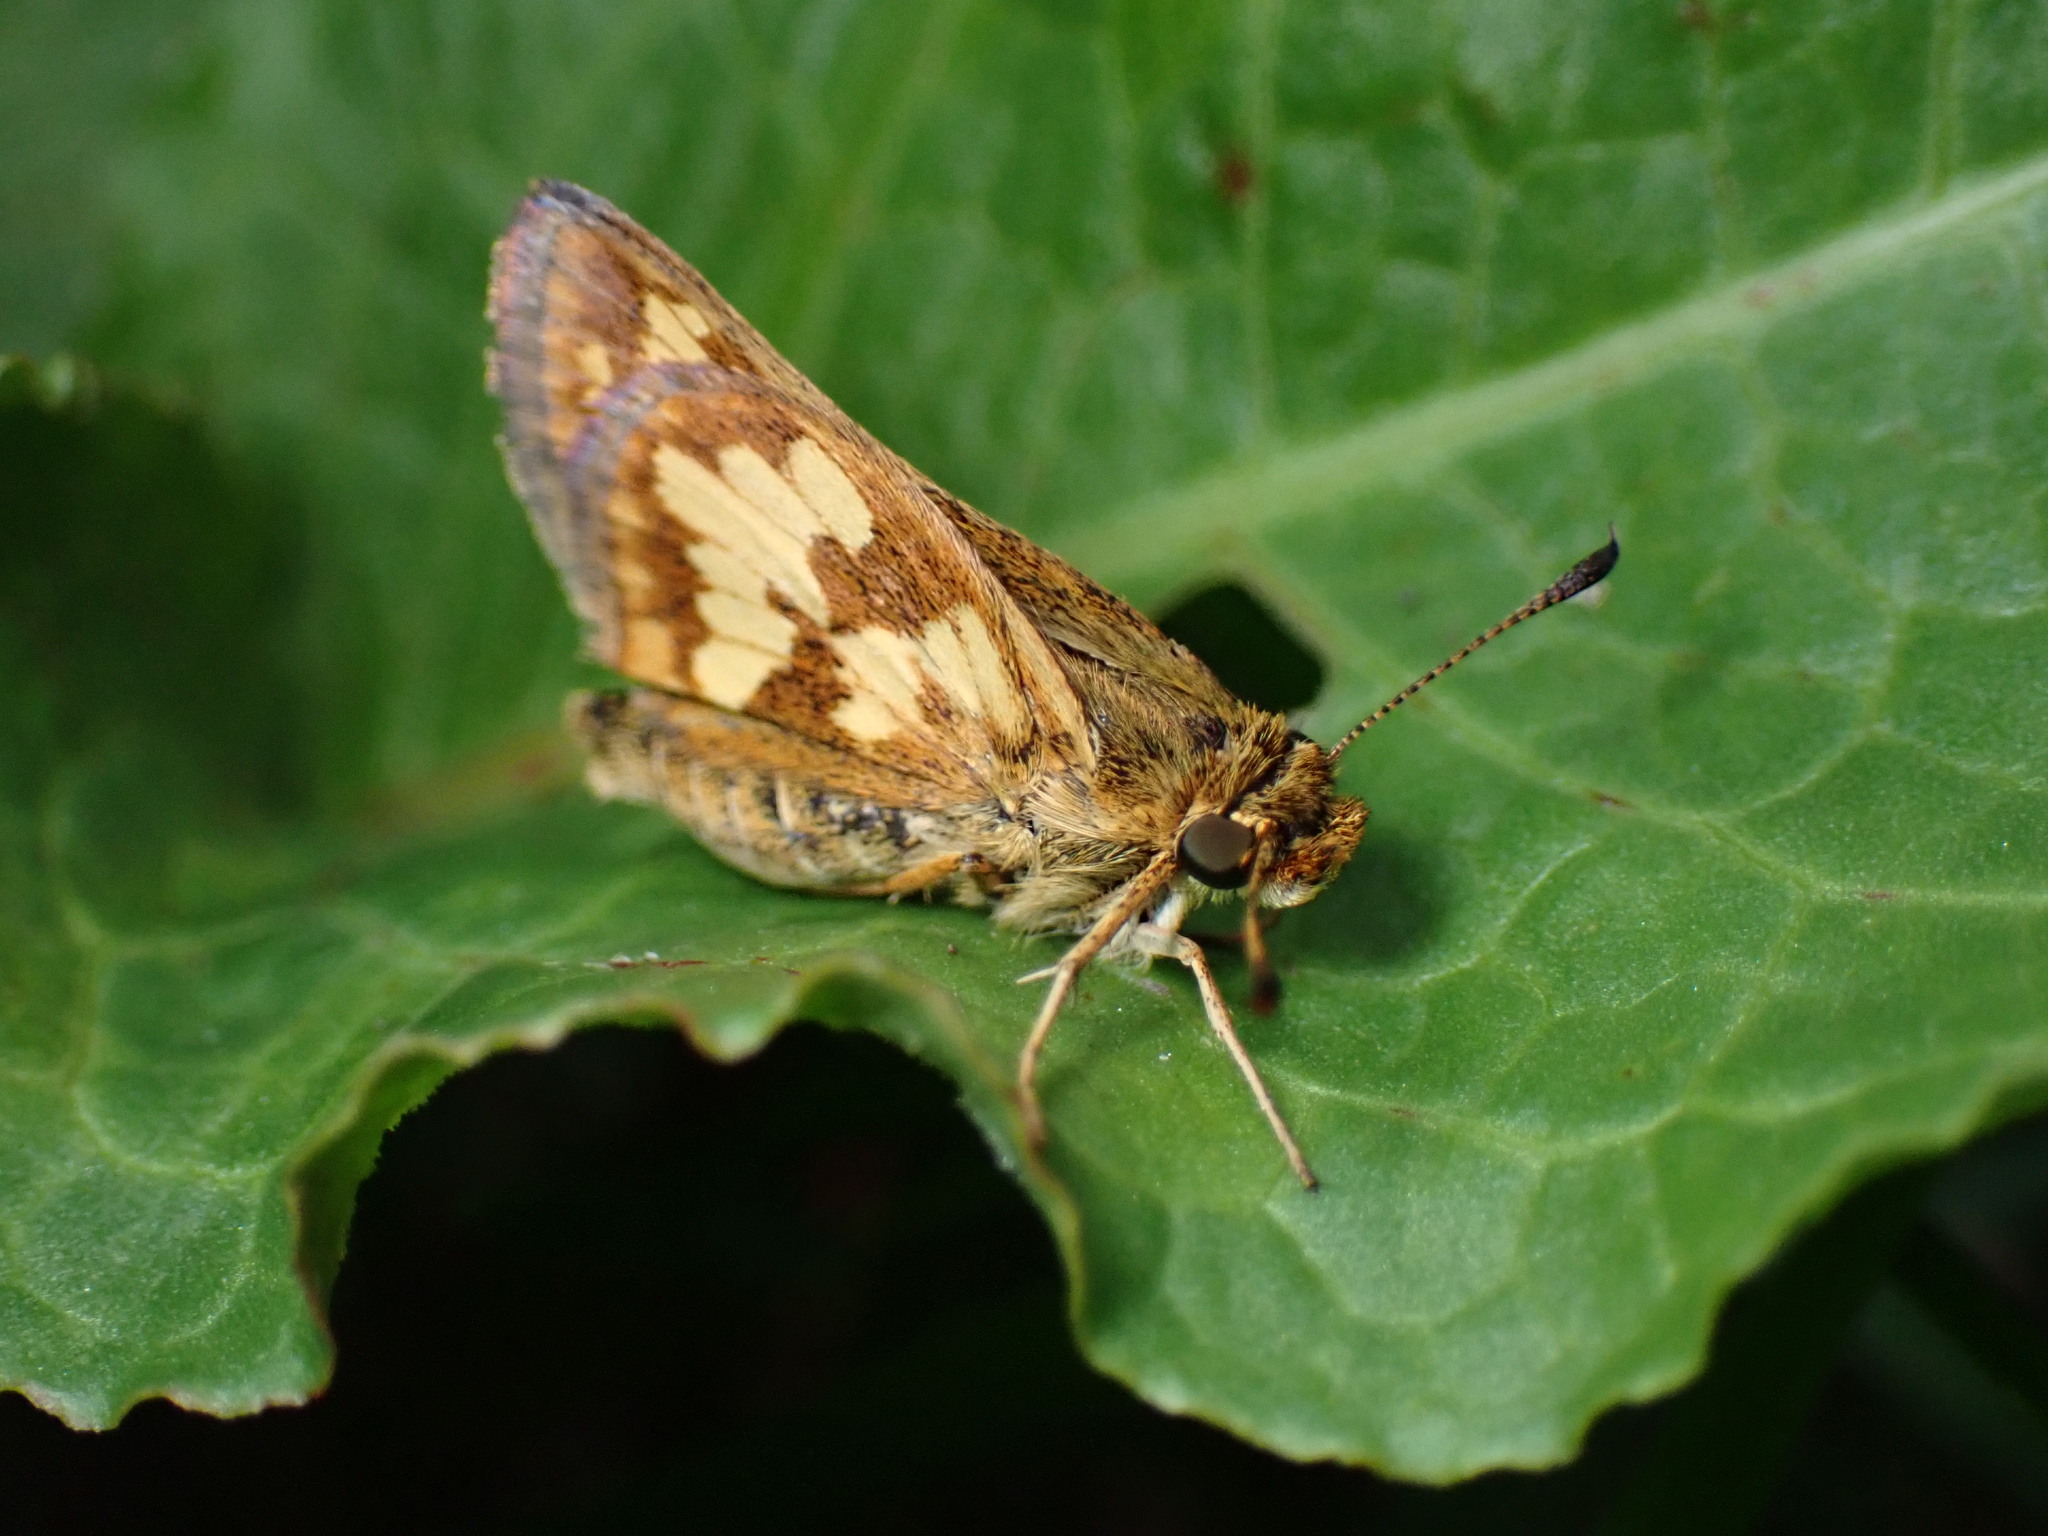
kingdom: Animalia
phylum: Arthropoda
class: Insecta
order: Lepidoptera
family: Hesperiidae
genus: Polites
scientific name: Polites coras
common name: Peck's skipper
